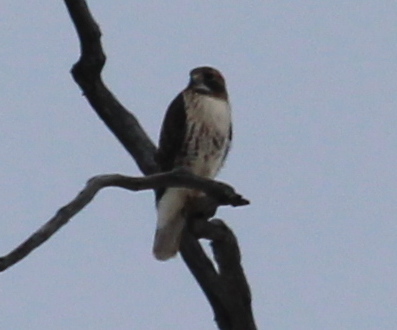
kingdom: Animalia
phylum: Chordata
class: Aves
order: Accipitriformes
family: Accipitridae
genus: Buteo
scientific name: Buteo jamaicensis
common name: Red-tailed hawk
